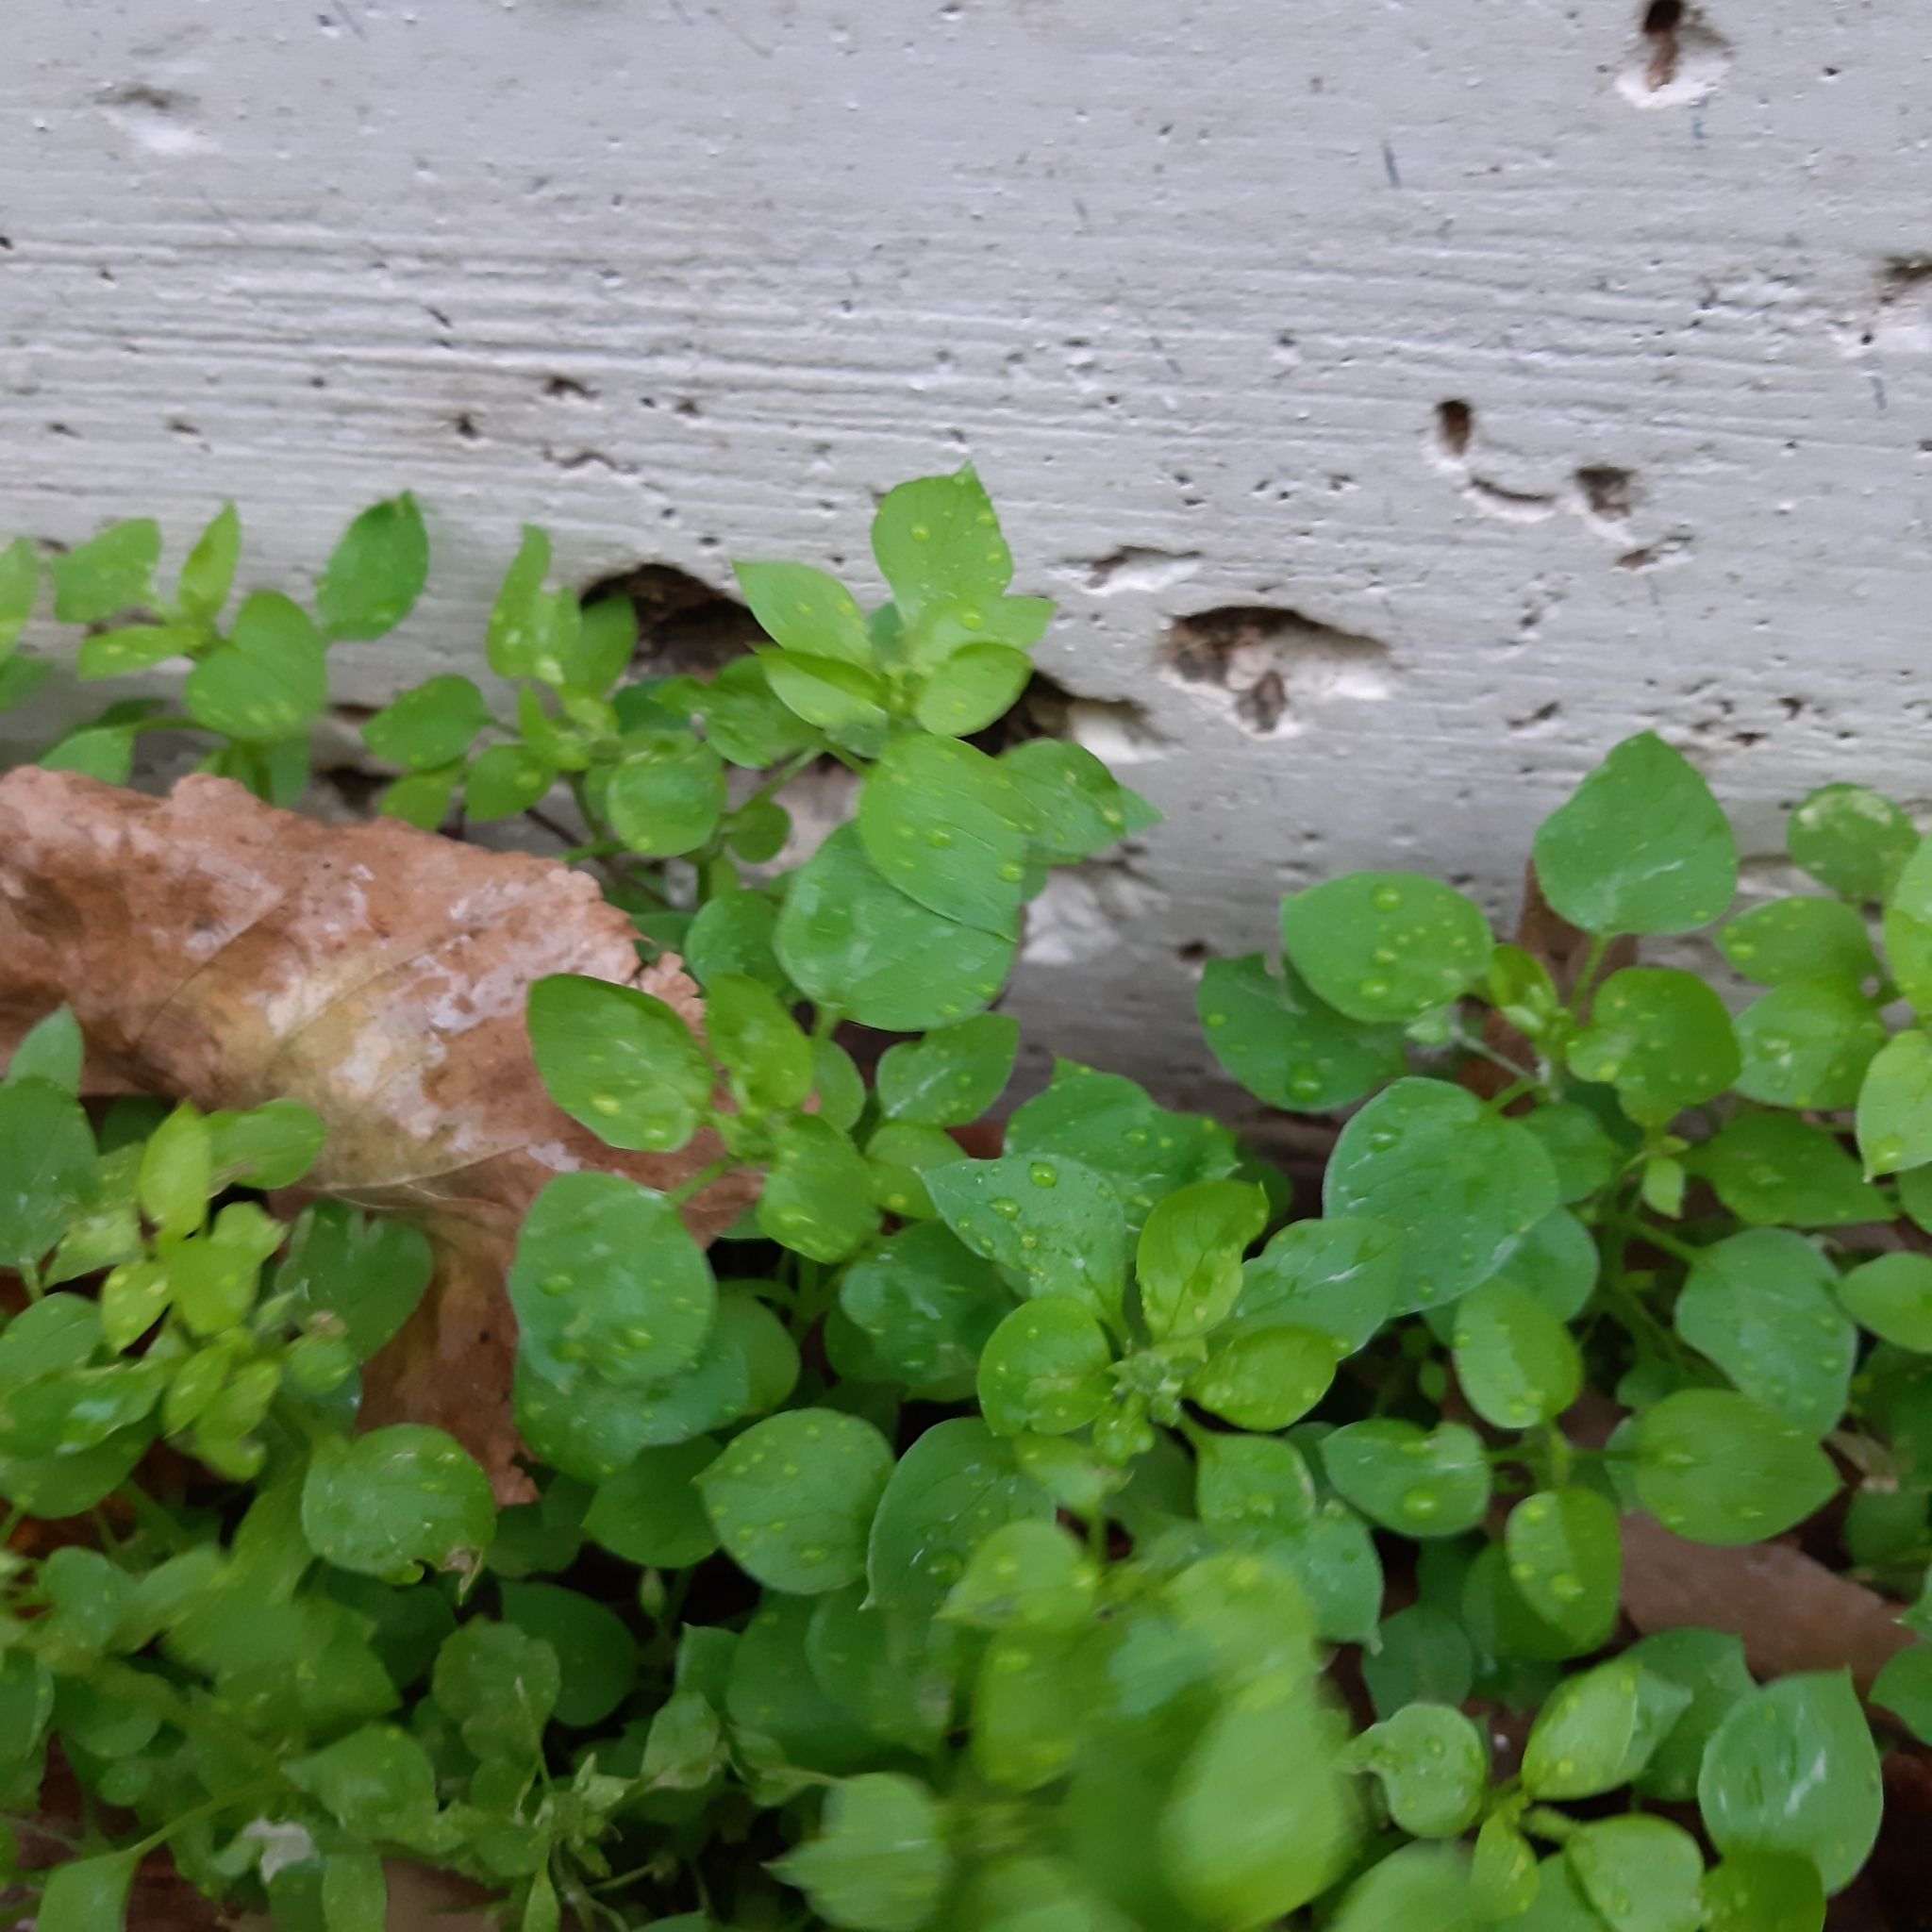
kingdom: Plantae
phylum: Tracheophyta
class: Magnoliopsida
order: Caryophyllales
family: Caryophyllaceae
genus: Stellaria
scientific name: Stellaria media
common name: Common chickweed
